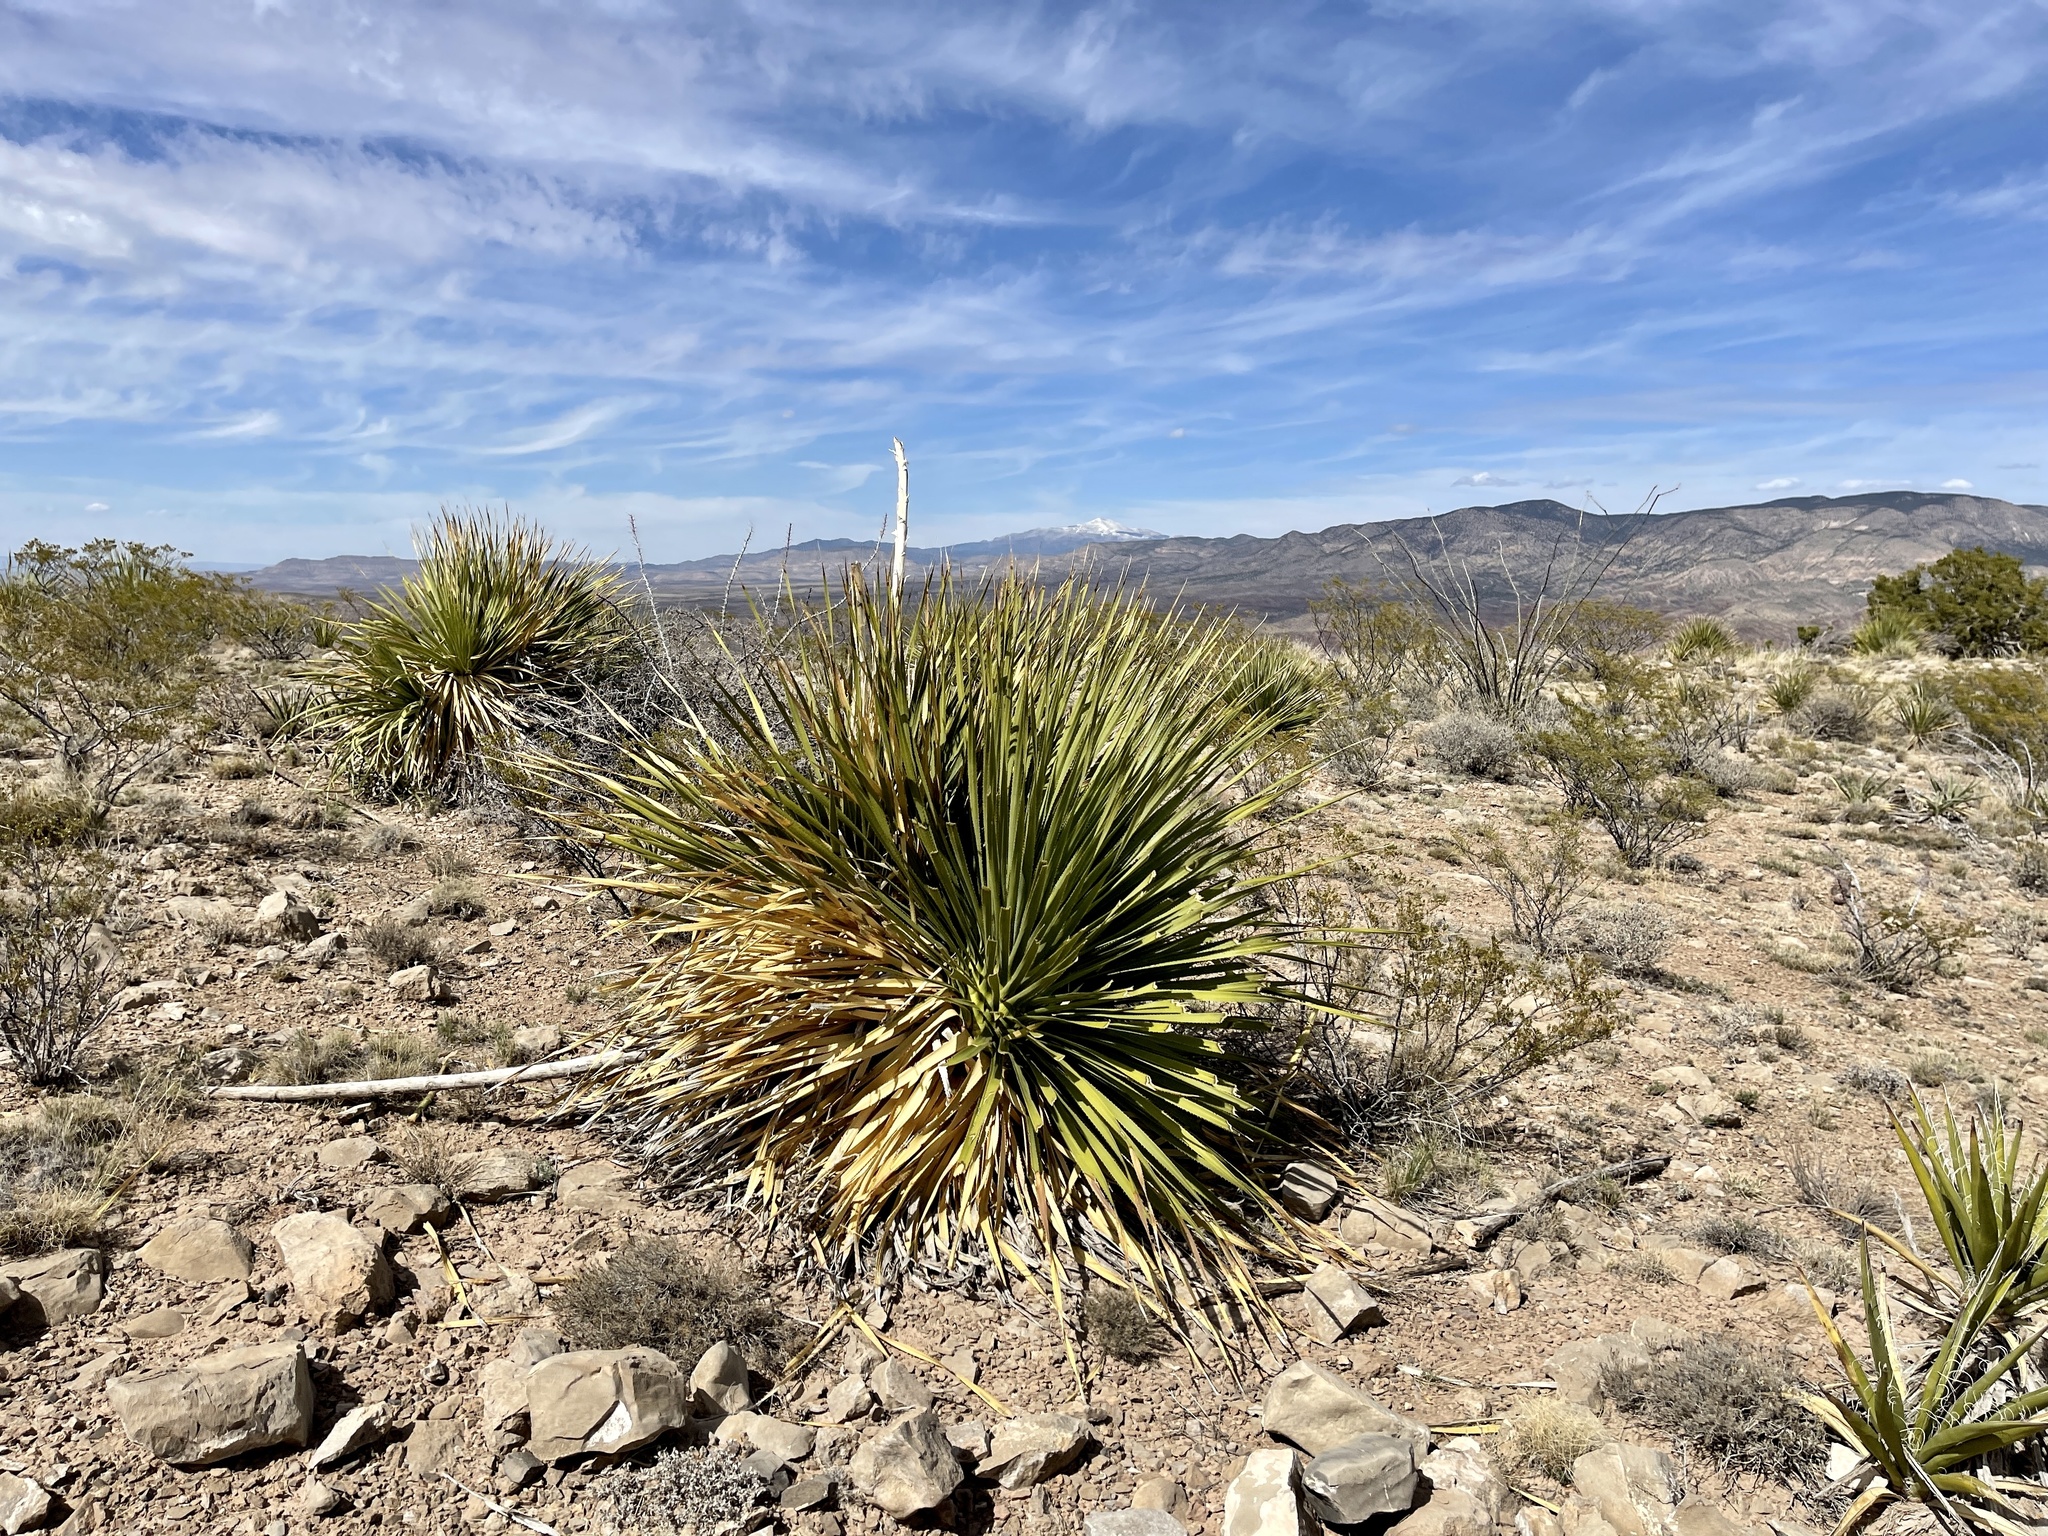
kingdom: Plantae
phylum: Tracheophyta
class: Liliopsida
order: Asparagales
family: Asparagaceae
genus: Dasylirion
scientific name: Dasylirion wheeleri
